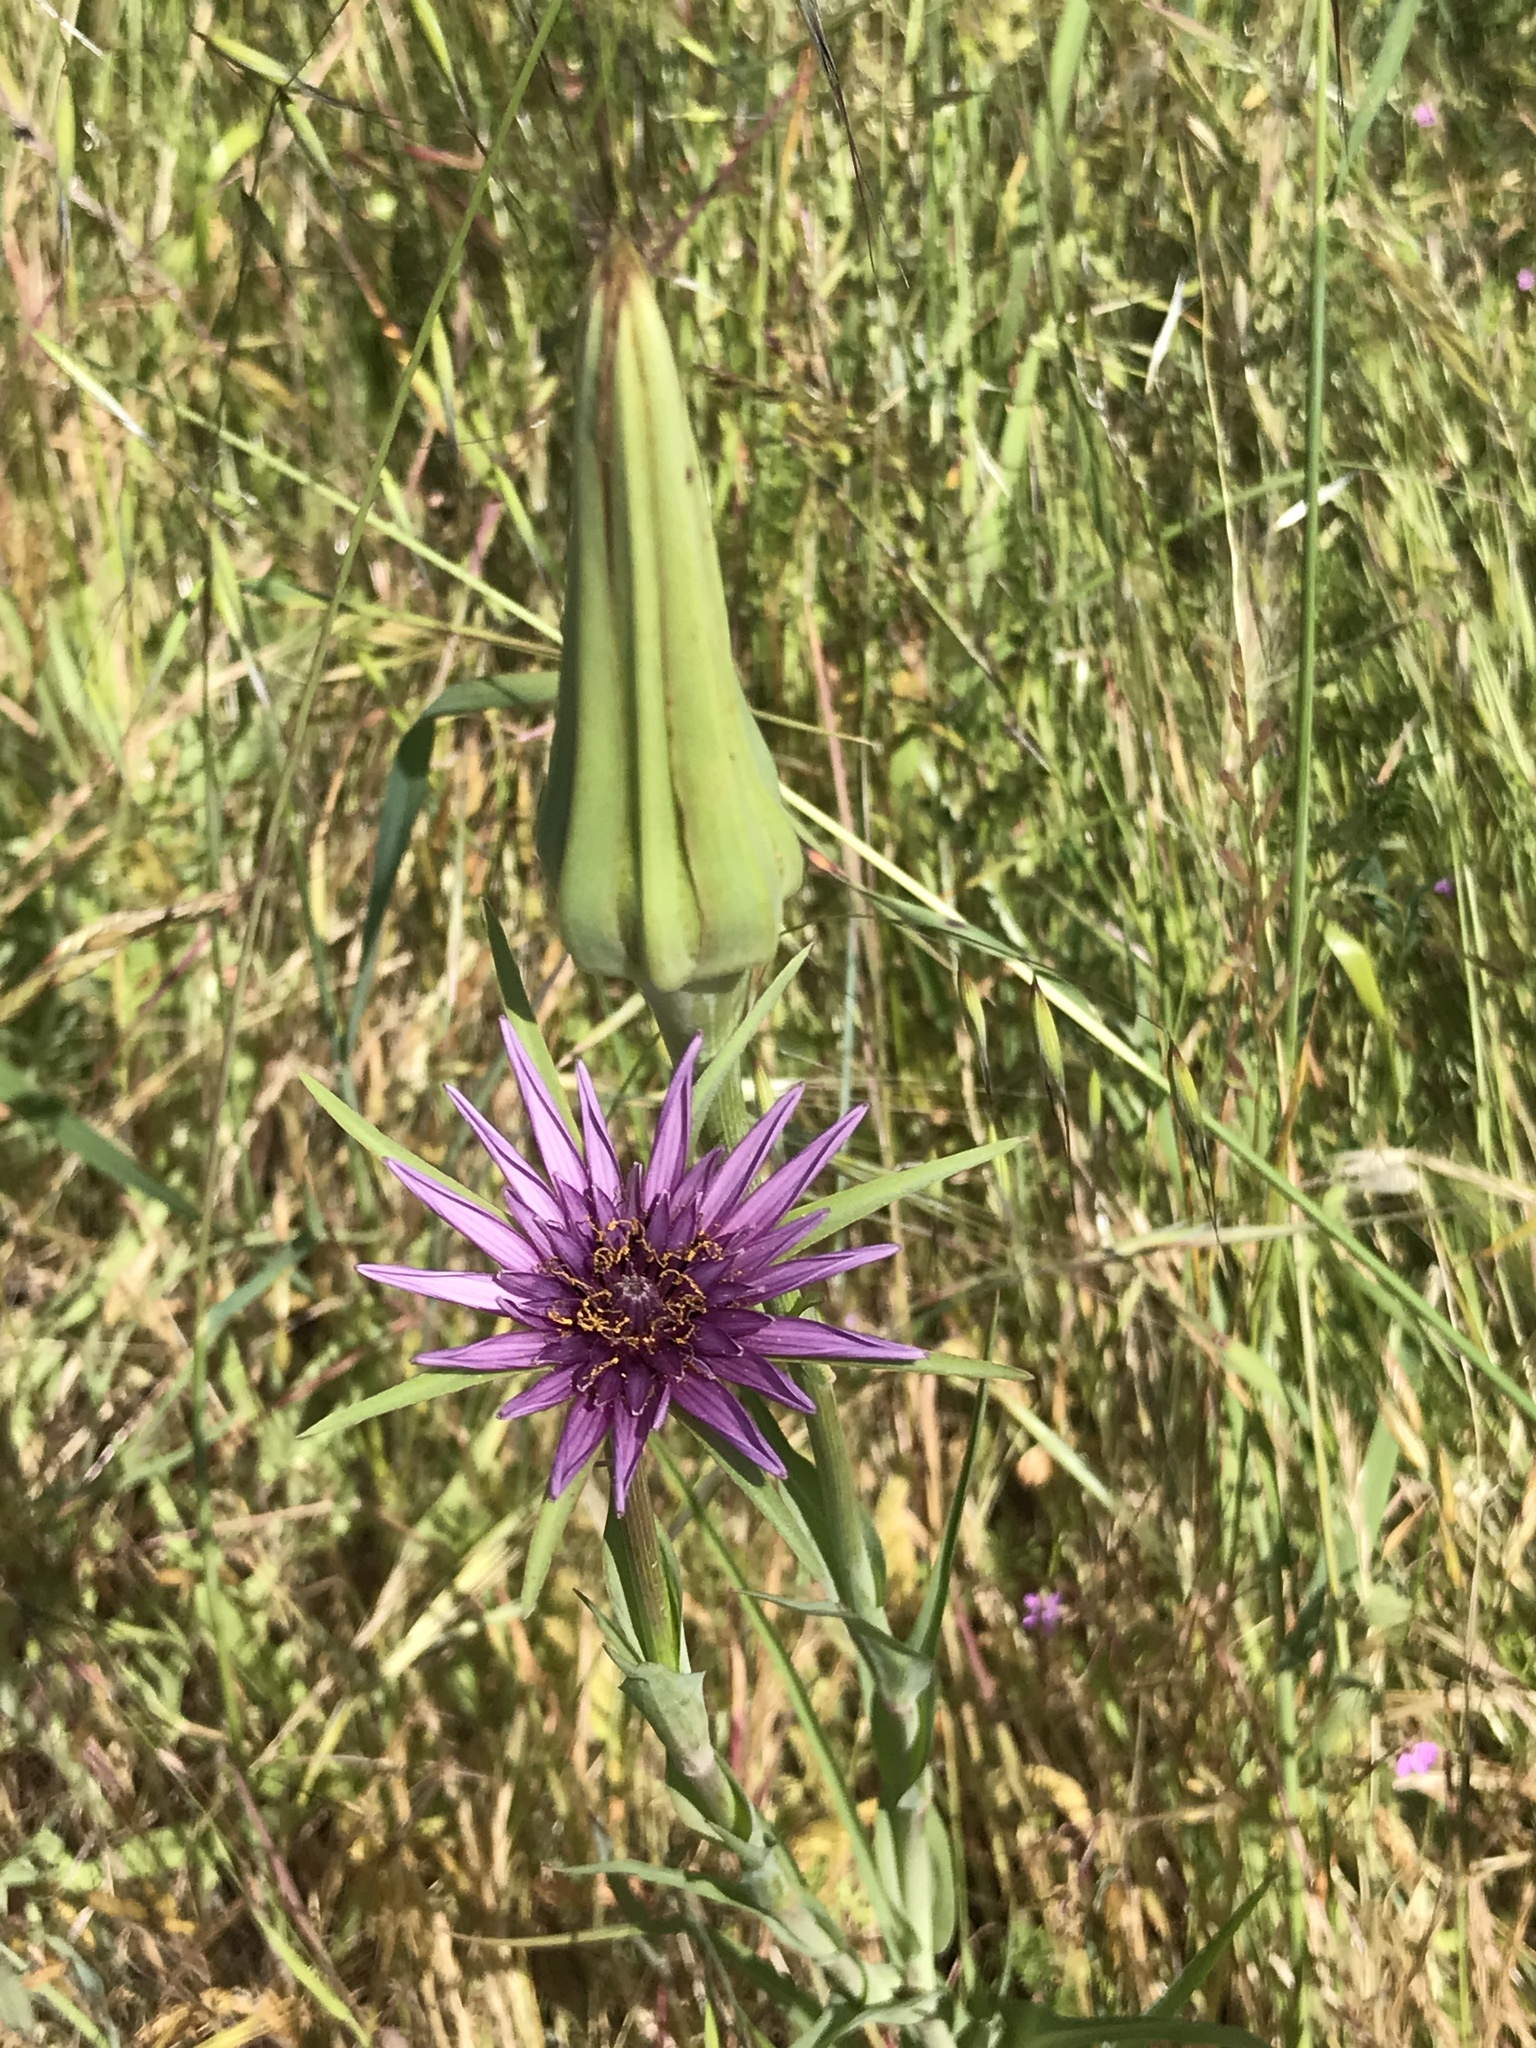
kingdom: Plantae
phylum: Tracheophyta
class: Magnoliopsida
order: Asterales
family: Asteraceae
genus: Tragopogon
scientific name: Tragopogon porrifolius
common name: Salsify
